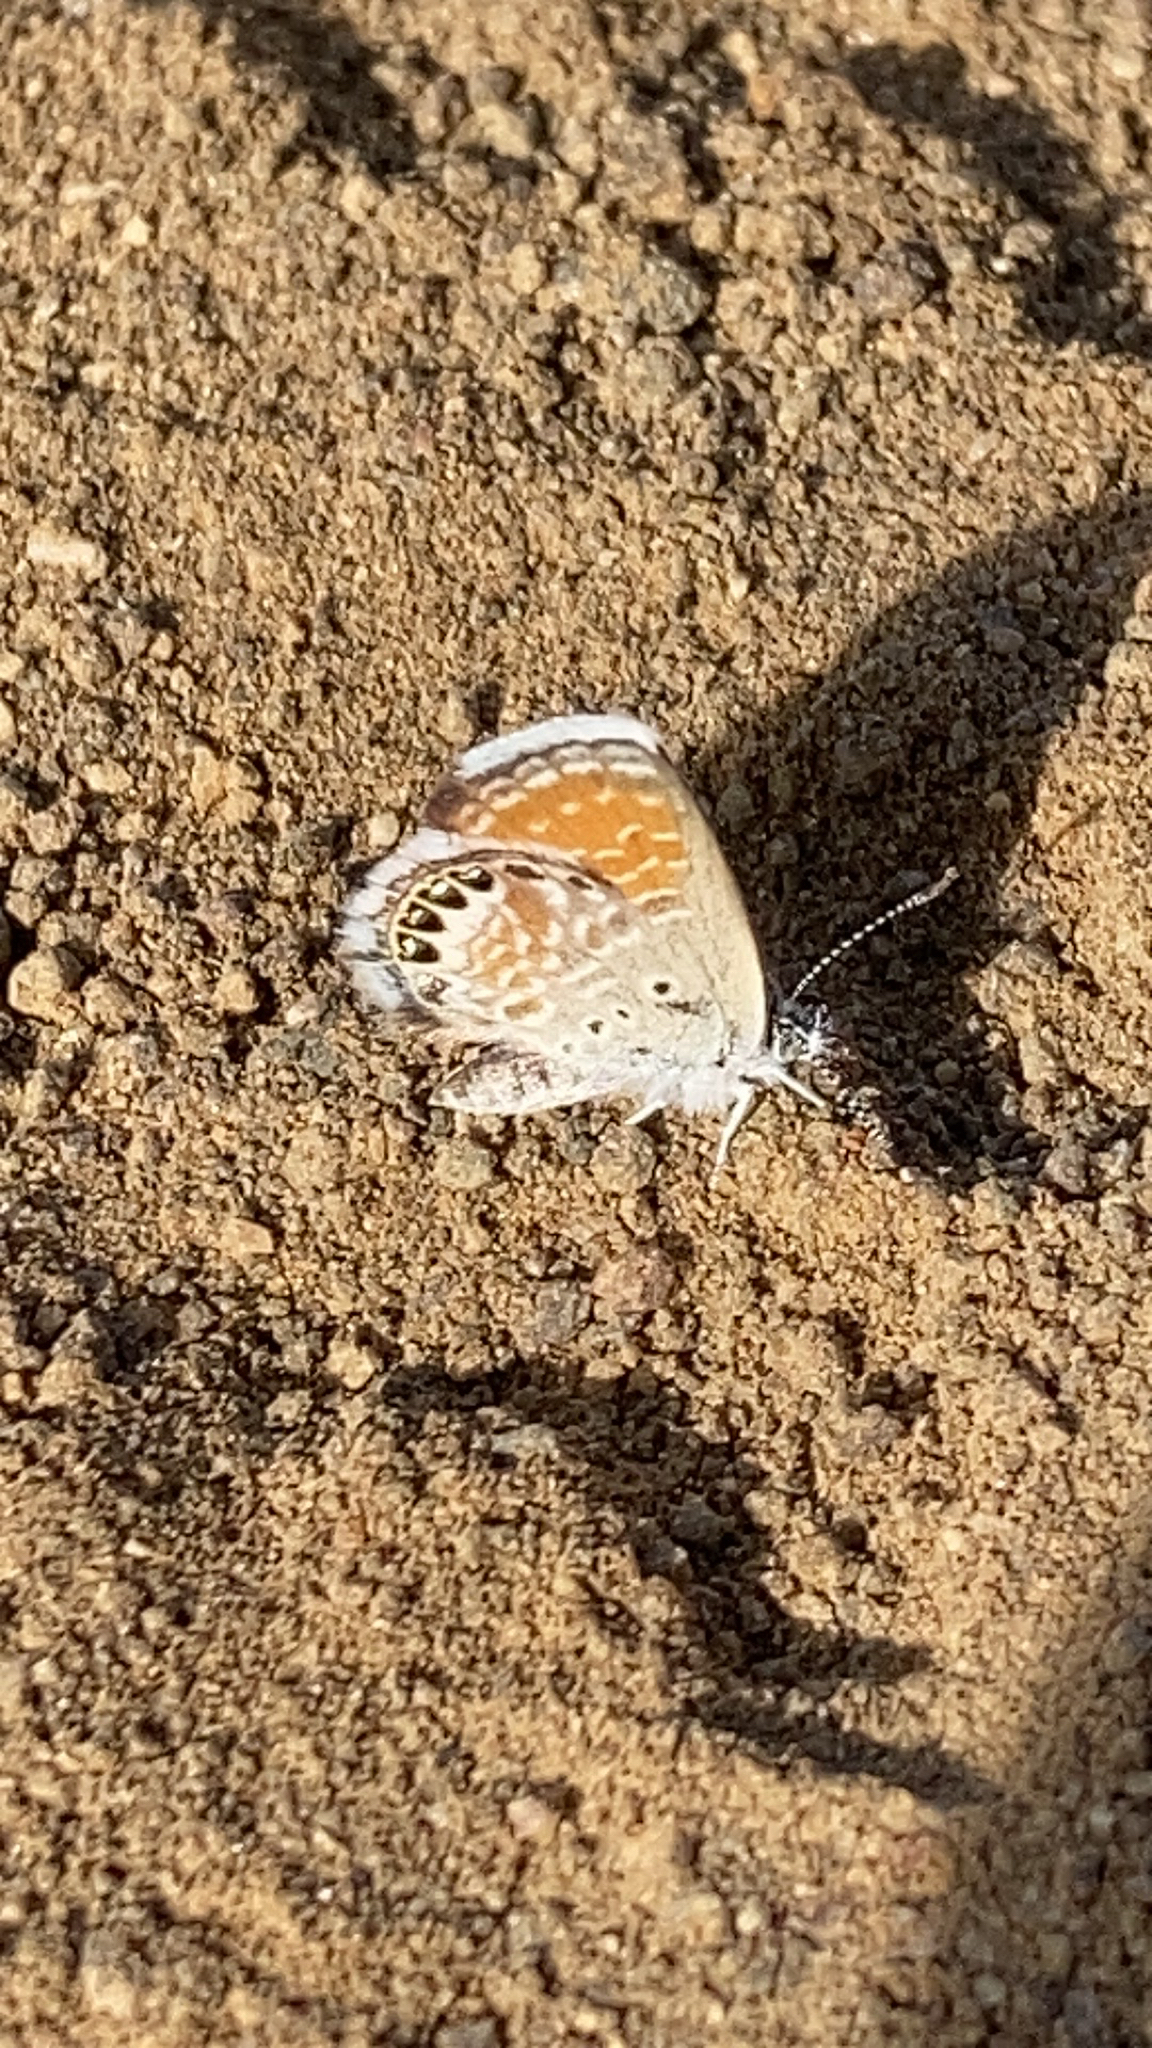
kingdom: Animalia
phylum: Arthropoda
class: Insecta
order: Lepidoptera
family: Lycaenidae
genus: Brephidium
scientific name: Brephidium exilis
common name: Pygmy blue
